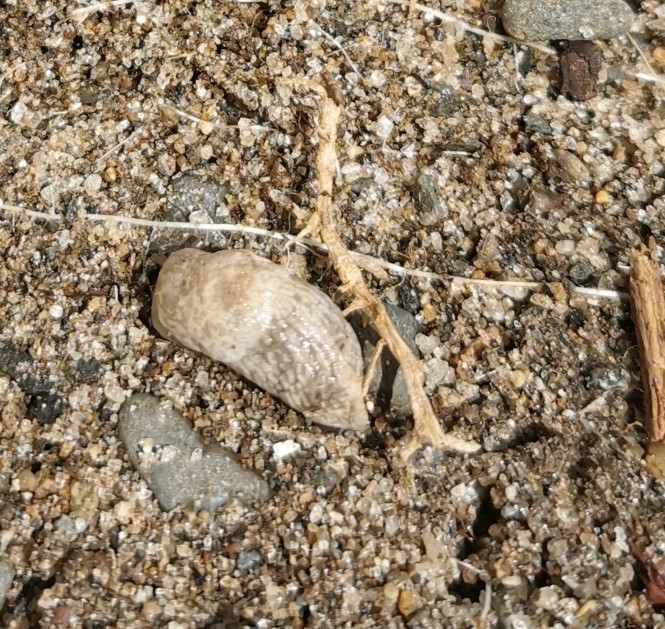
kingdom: Animalia
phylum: Mollusca
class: Gastropoda
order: Stylommatophora
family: Agriolimacidae
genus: Deroceras
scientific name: Deroceras reticulatum
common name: Gray field slug
